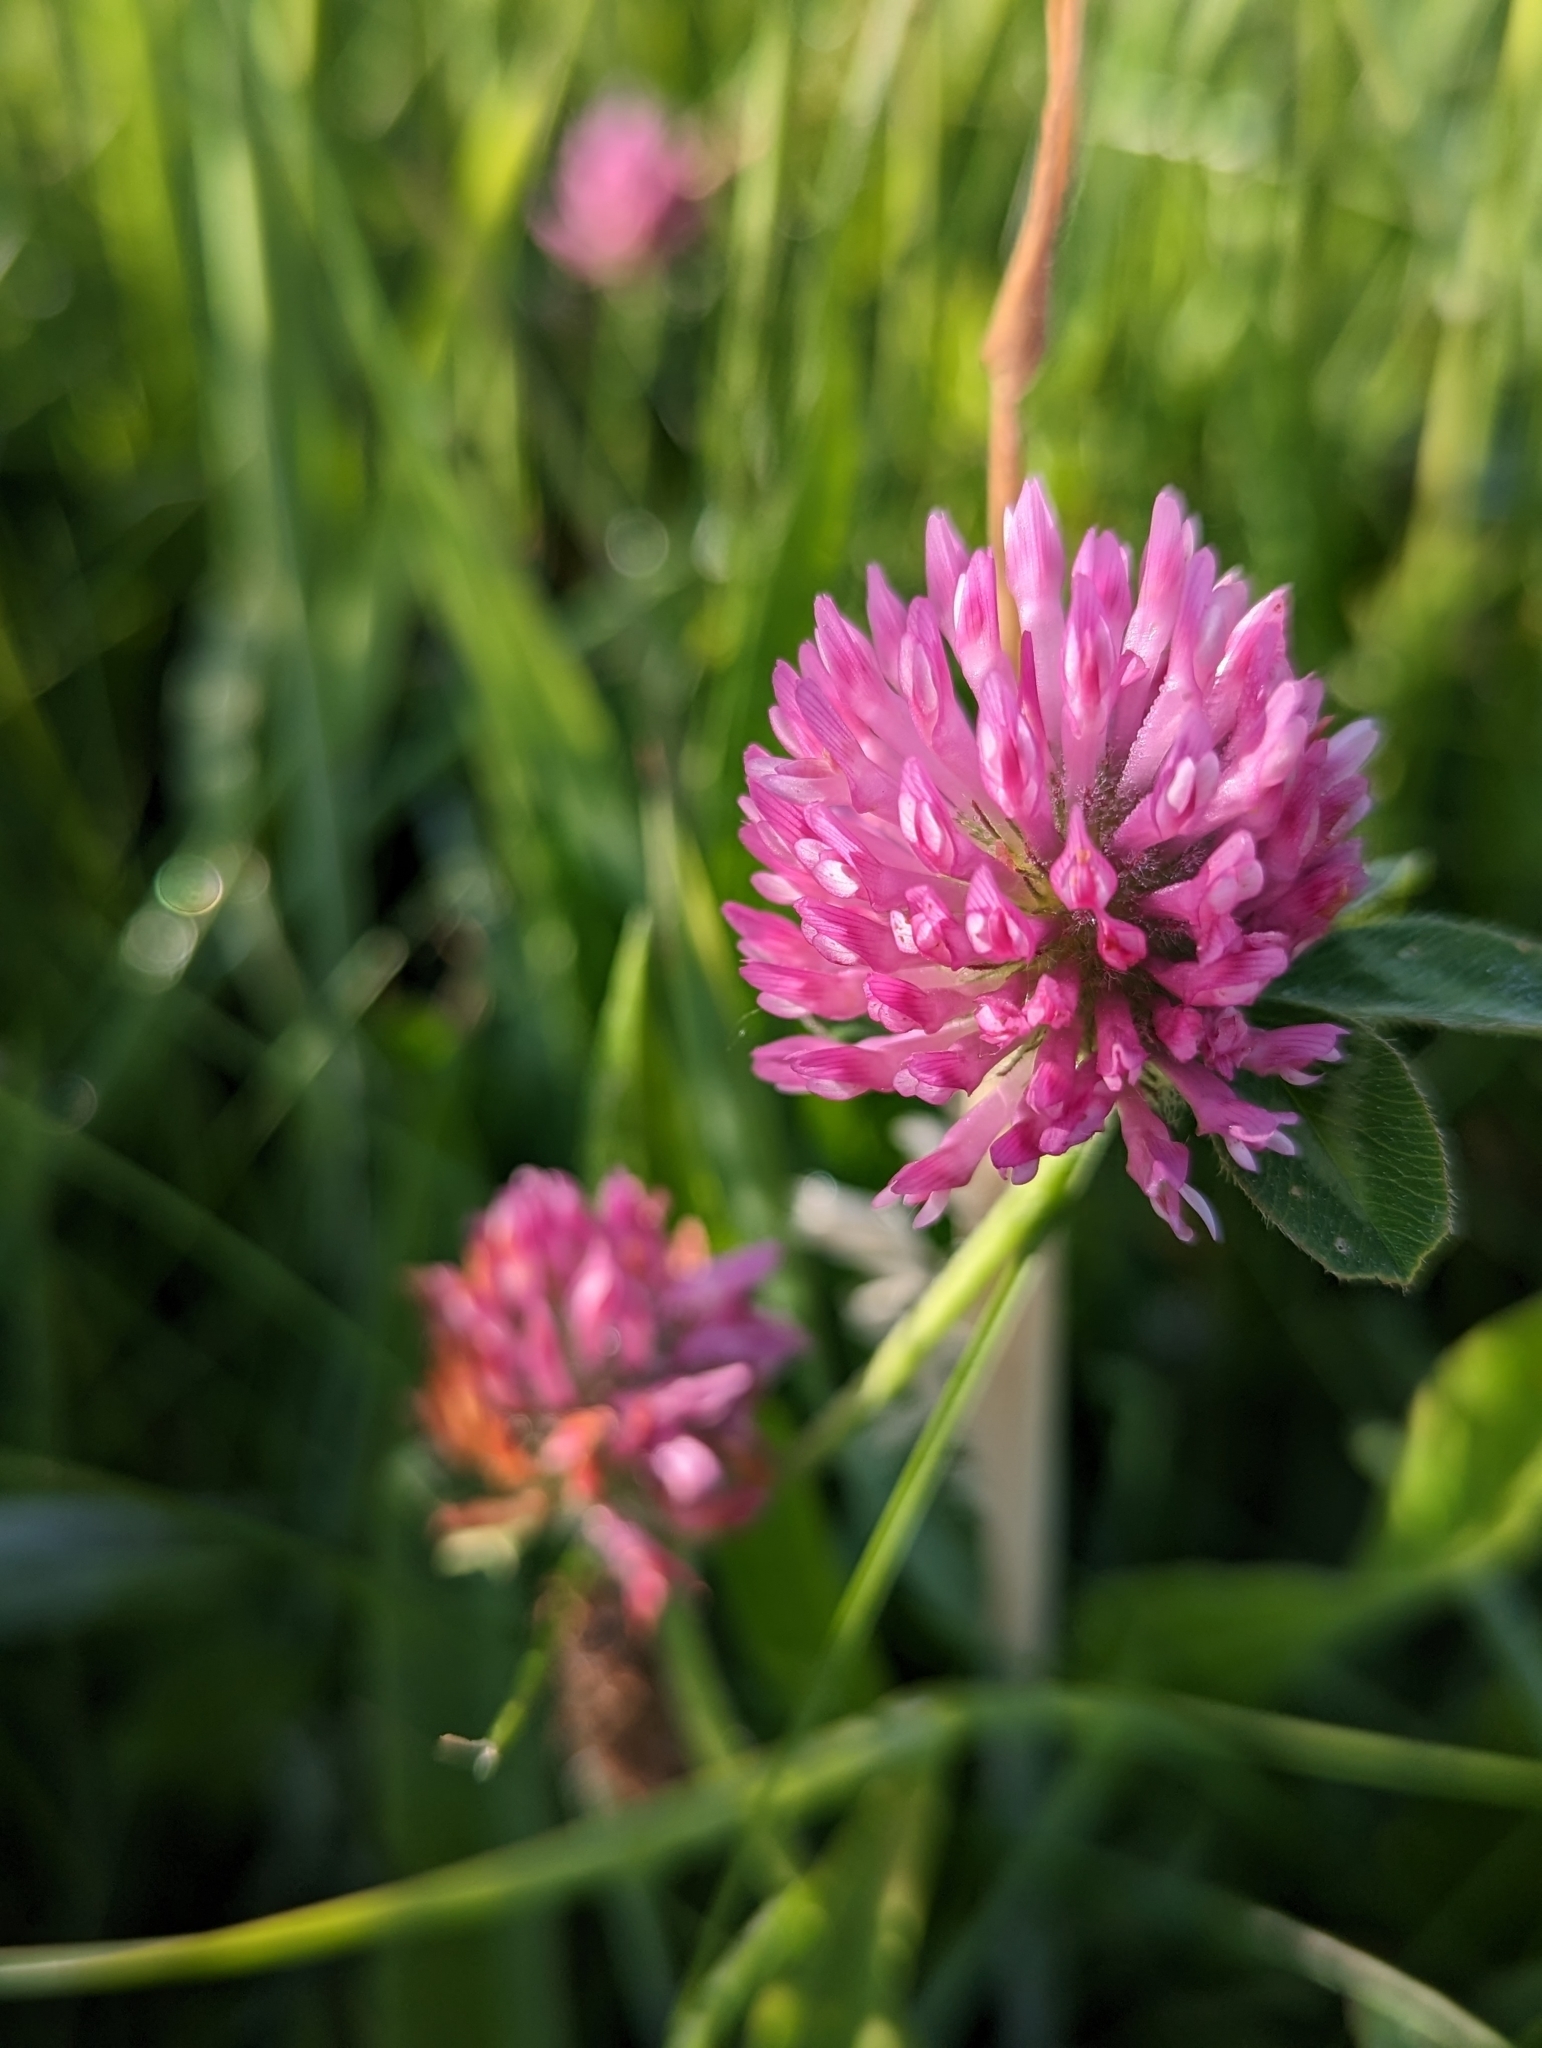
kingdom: Plantae
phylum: Tracheophyta
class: Magnoliopsida
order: Fabales
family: Fabaceae
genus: Trifolium
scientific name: Trifolium pratense
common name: Red clover
